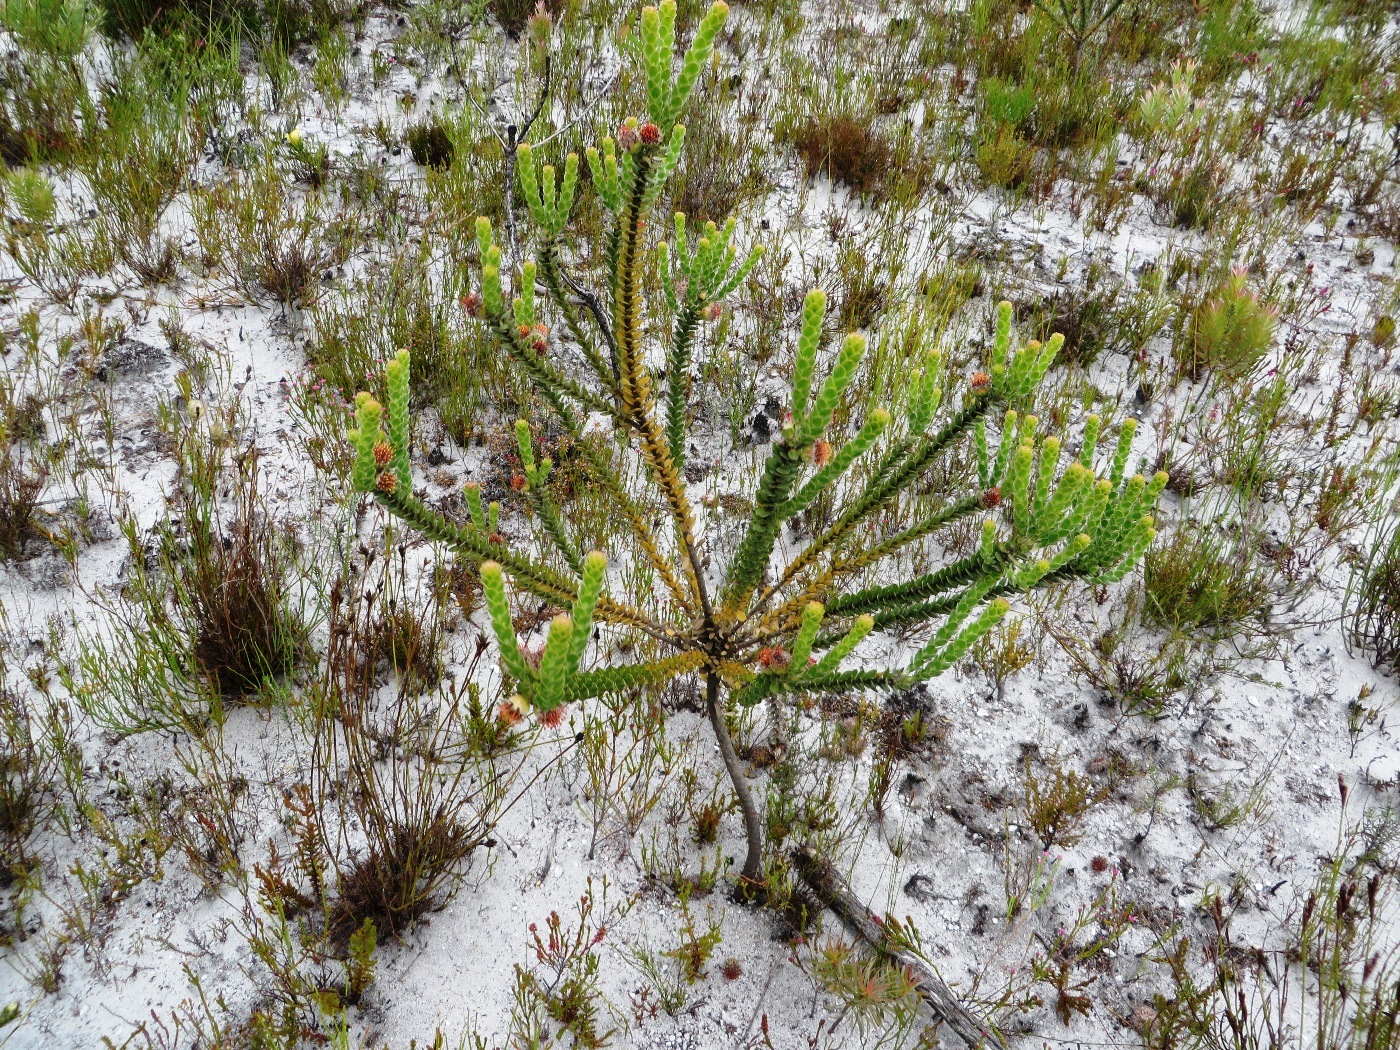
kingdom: Plantae
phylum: Tracheophyta
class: Magnoliopsida
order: Proteales
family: Proteaceae
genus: Leucospermum
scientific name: Leucospermum truncatulum
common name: Oval-leaf pincushion
